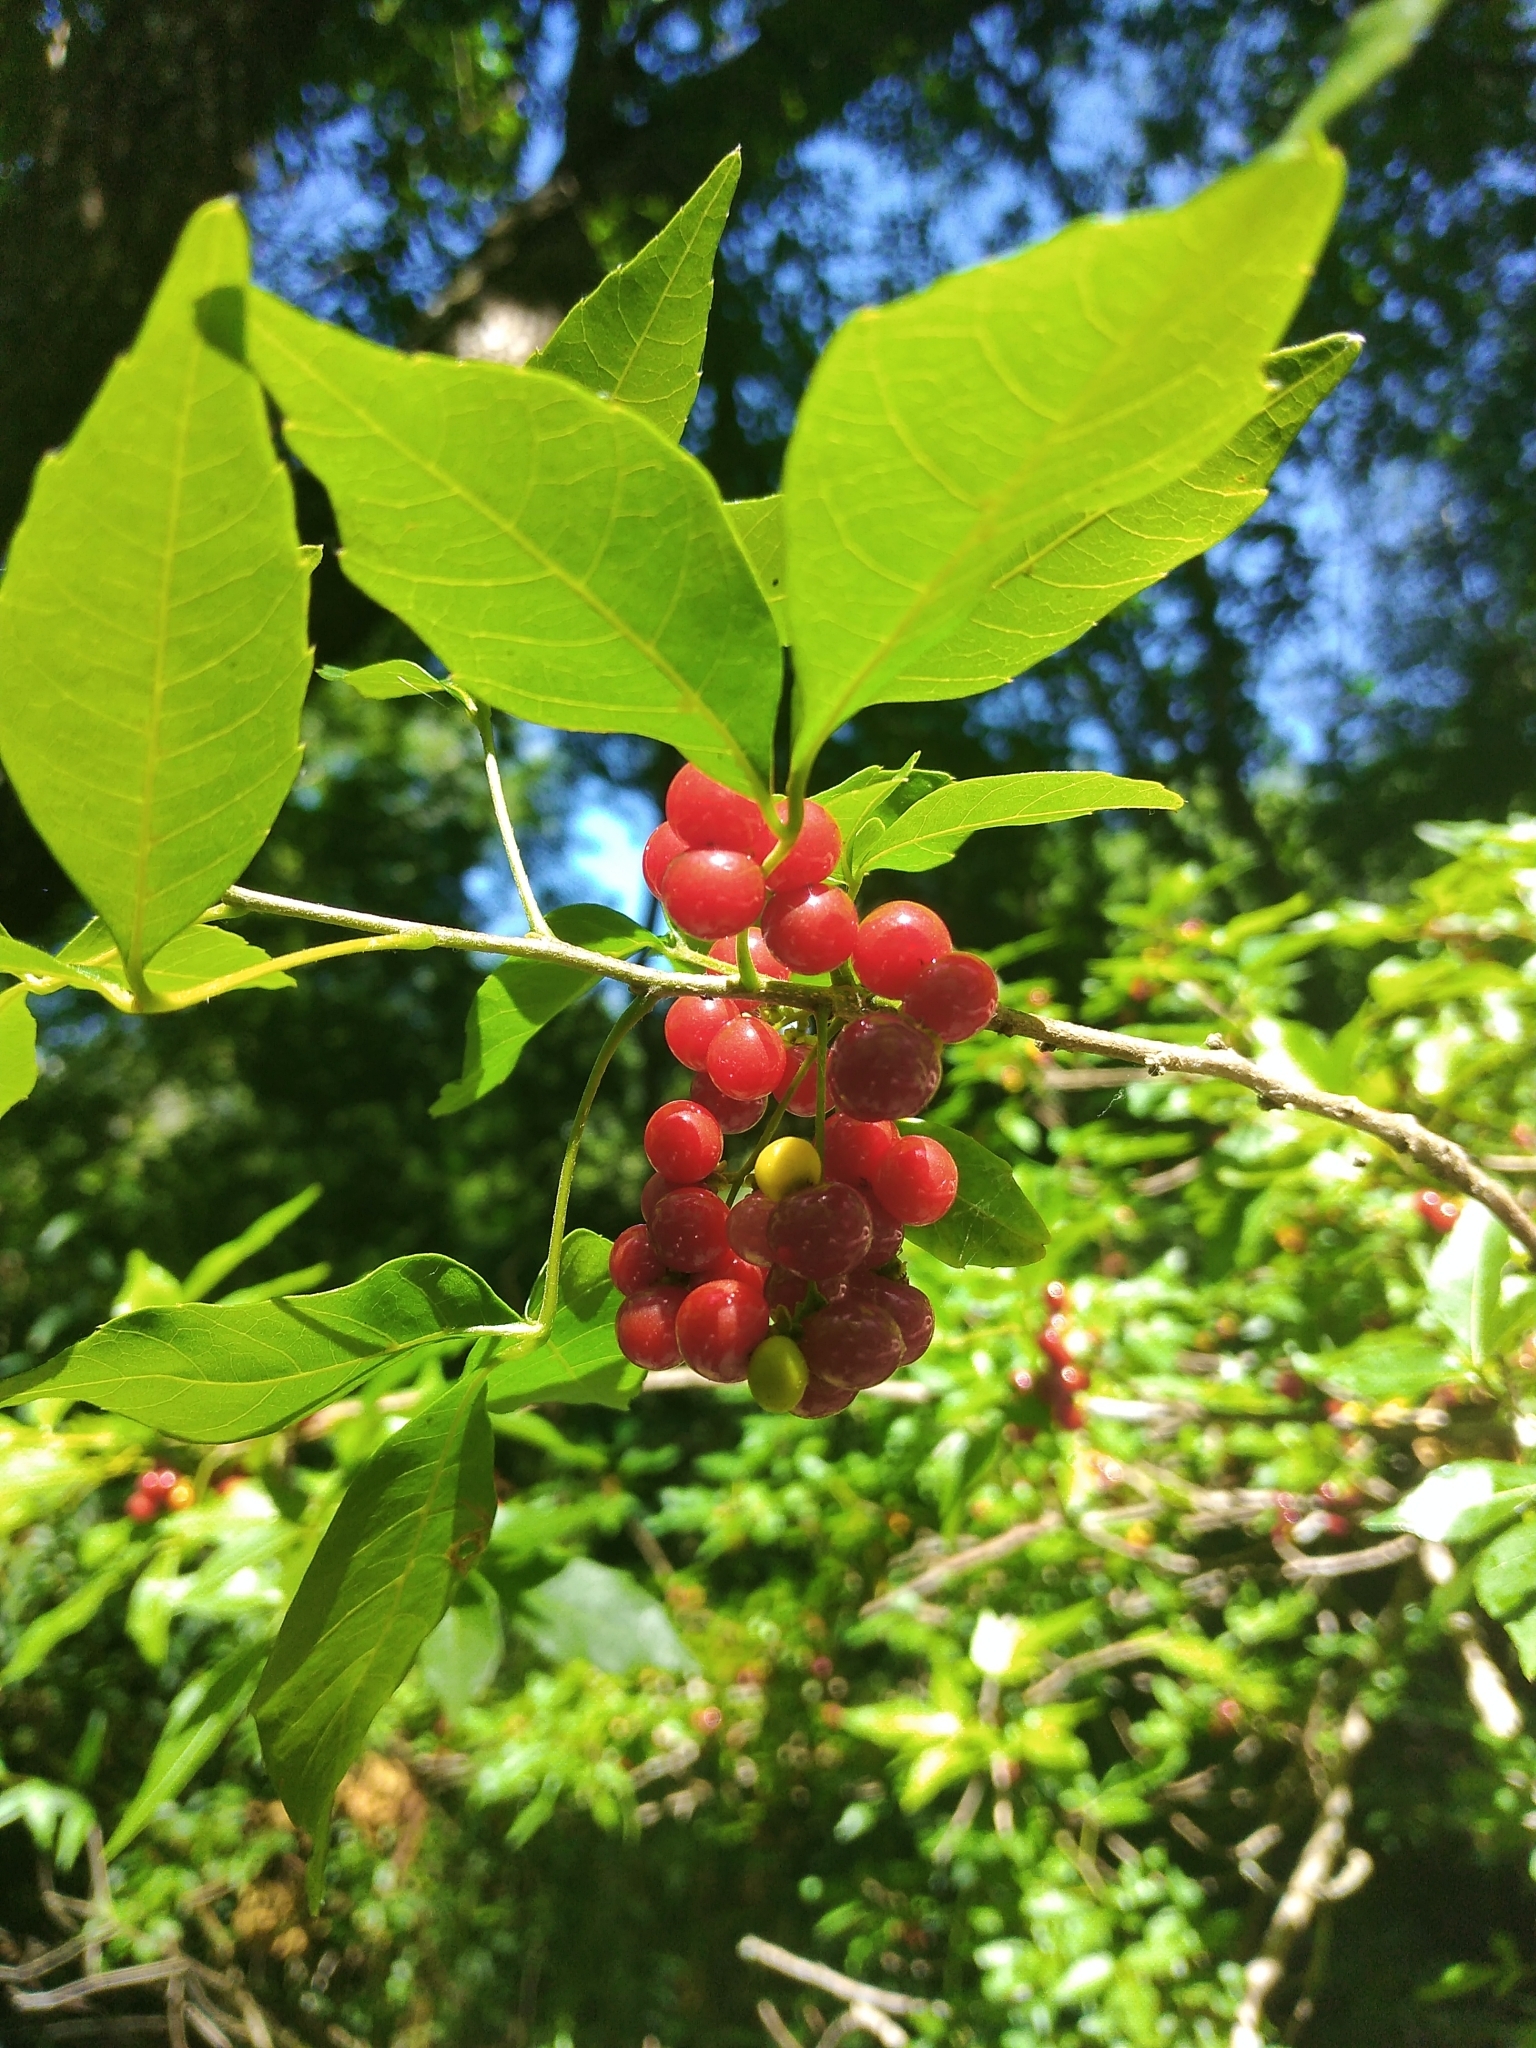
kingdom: Plantae
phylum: Tracheophyta
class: Magnoliopsida
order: Sapindales
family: Sapindaceae
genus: Allophylus
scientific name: Allophylus edulis
